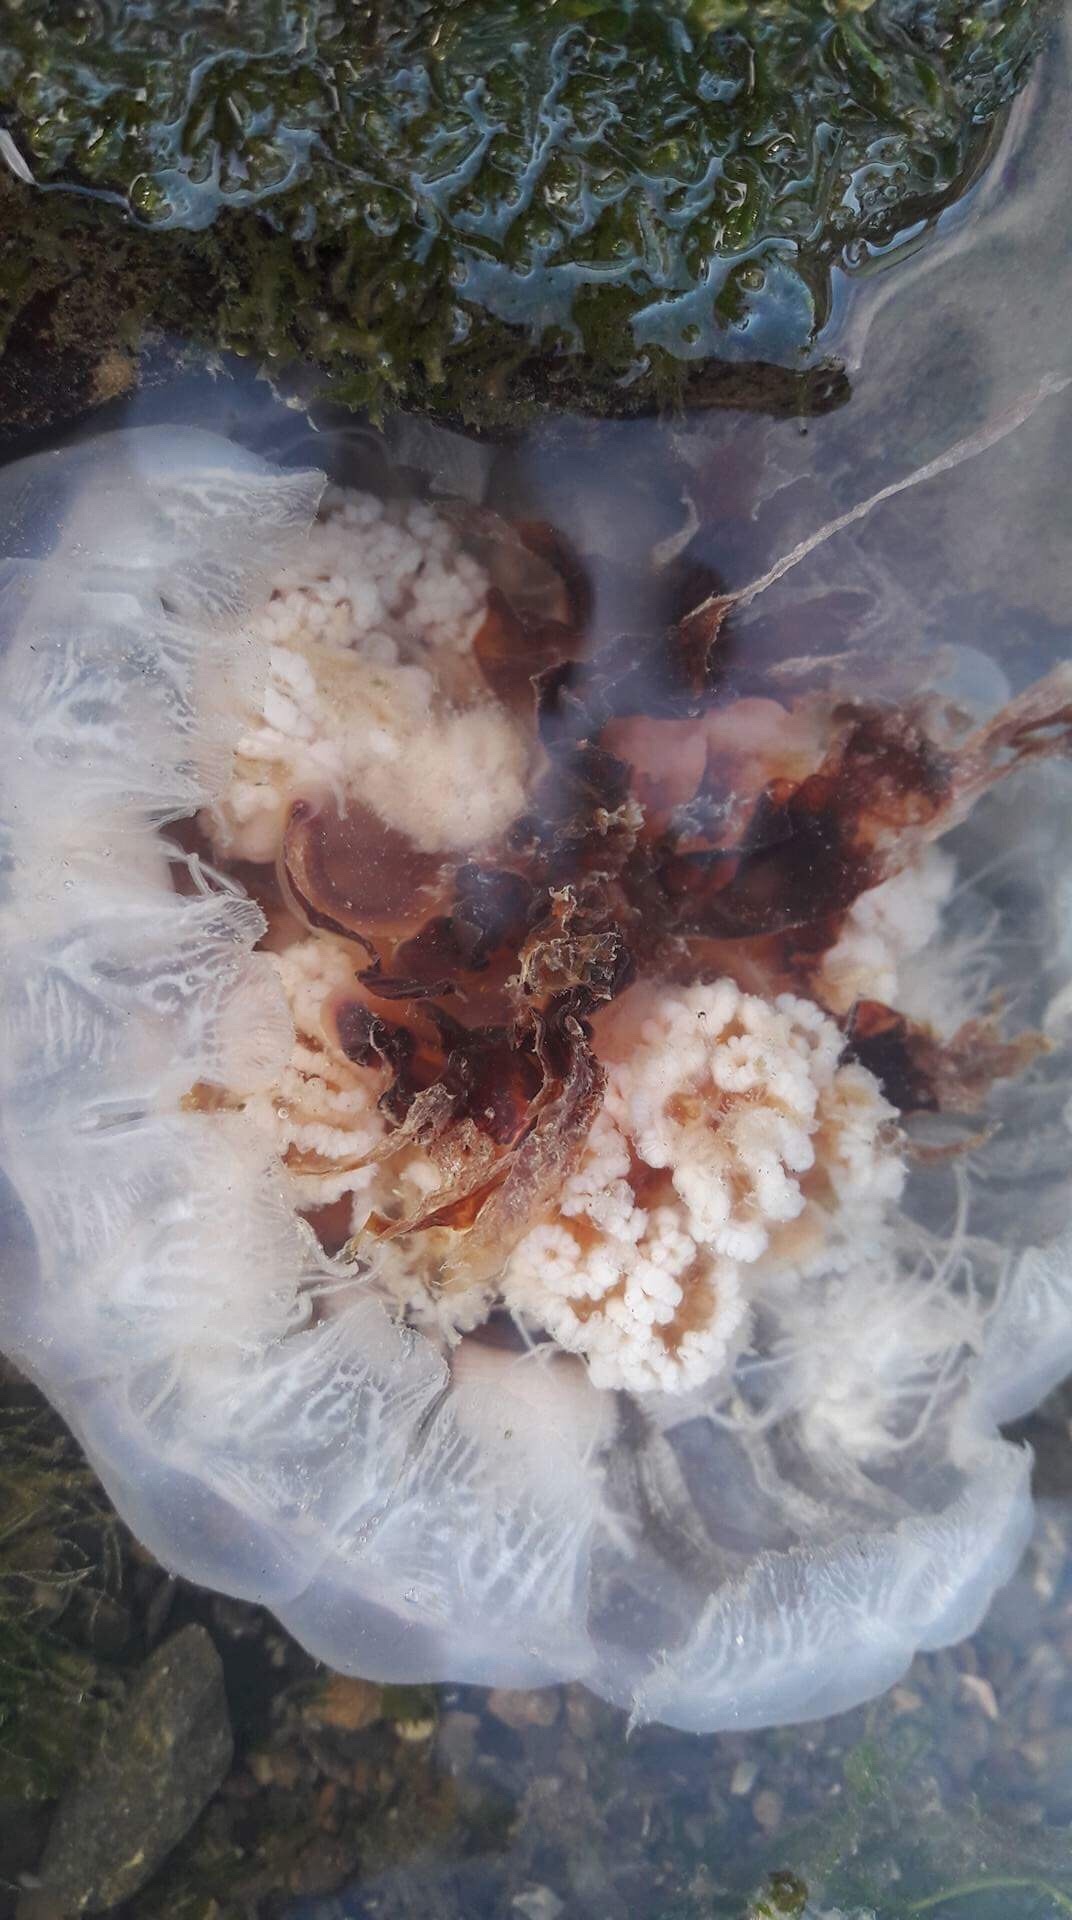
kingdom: Animalia
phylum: Cnidaria
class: Scyphozoa
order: Semaeostomeae
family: Cyaneidae
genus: Cyanea
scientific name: Cyanea
